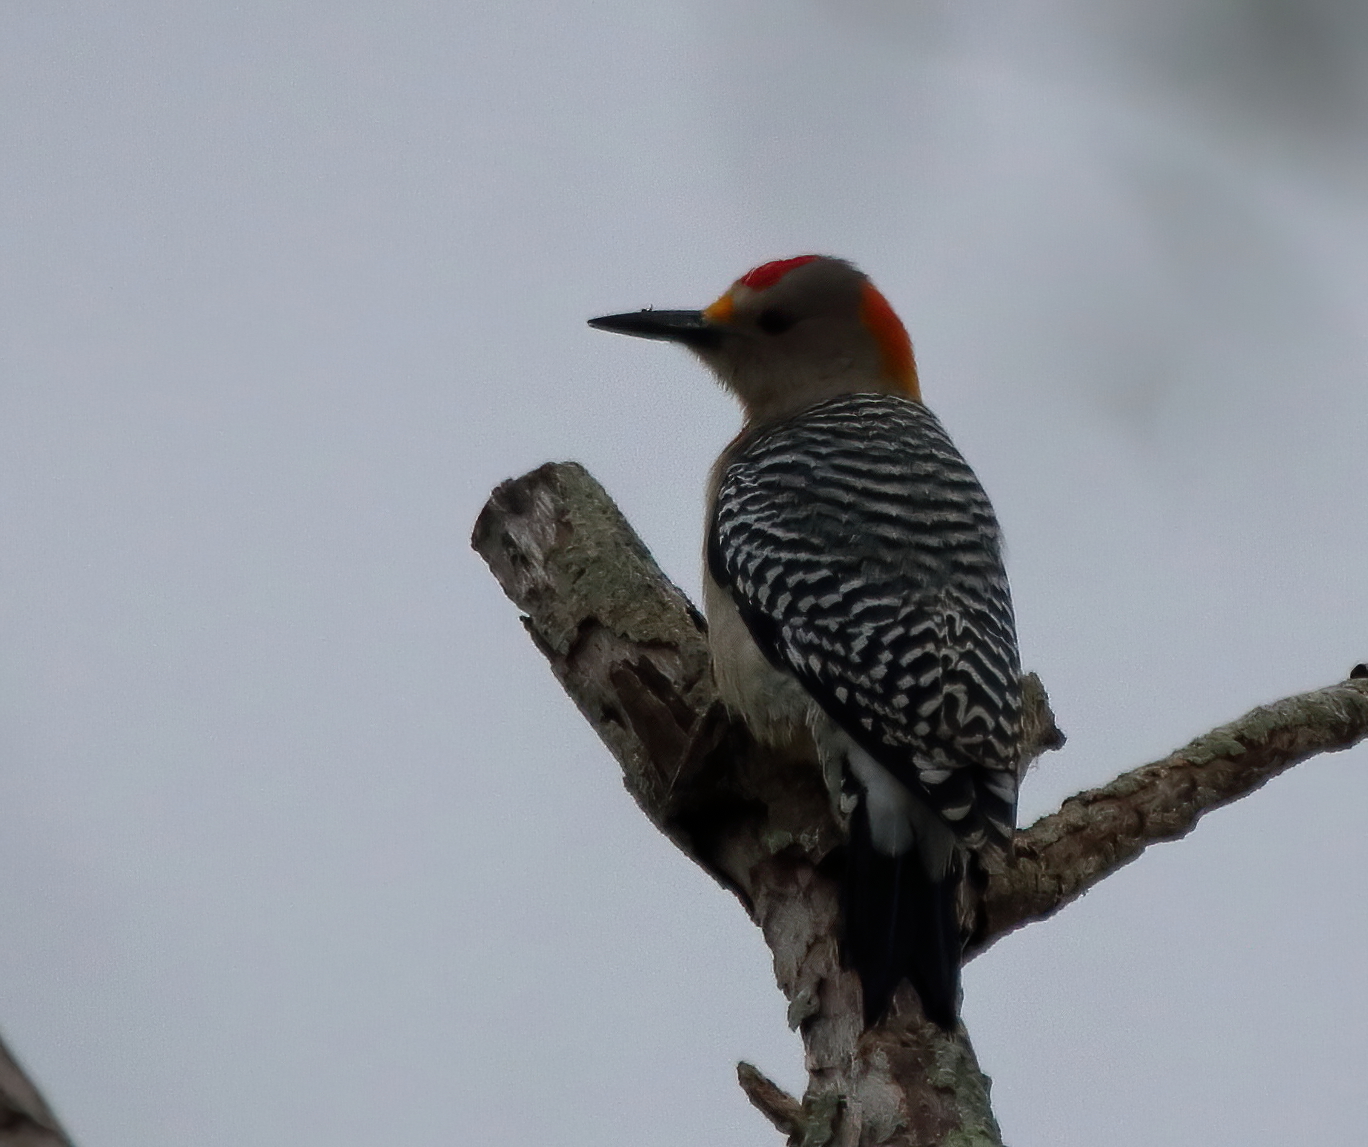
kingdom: Animalia
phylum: Chordata
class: Aves
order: Piciformes
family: Picidae
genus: Melanerpes
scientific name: Melanerpes aurifrons
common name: Golden-fronted woodpecker
